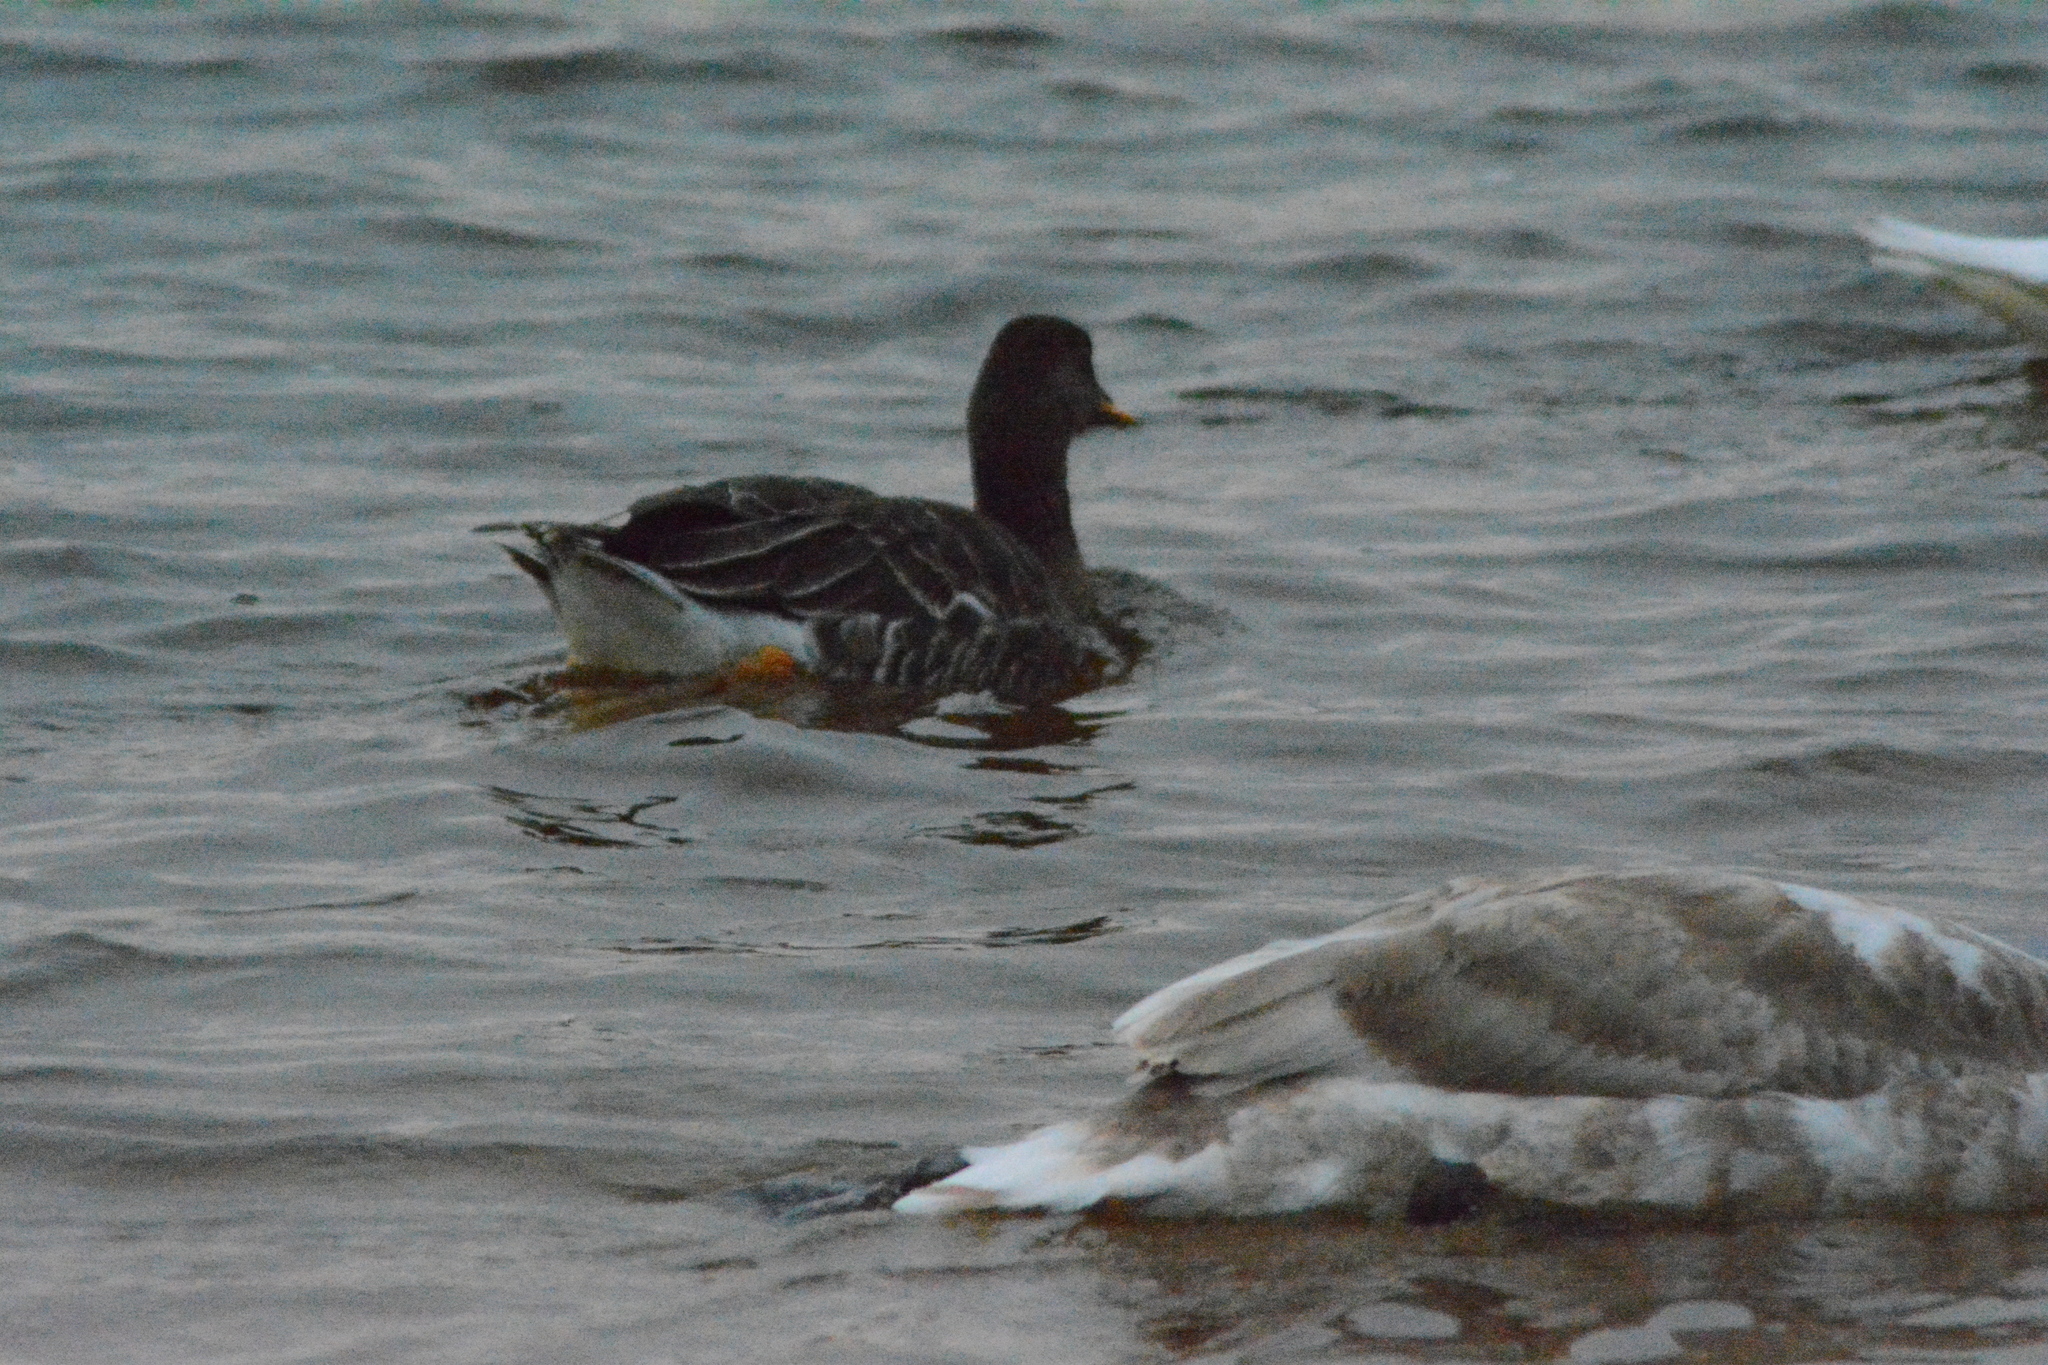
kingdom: Animalia
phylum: Chordata
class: Aves
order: Anseriformes
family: Anatidae
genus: Anser
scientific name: Anser fabalis
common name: Bean goose
